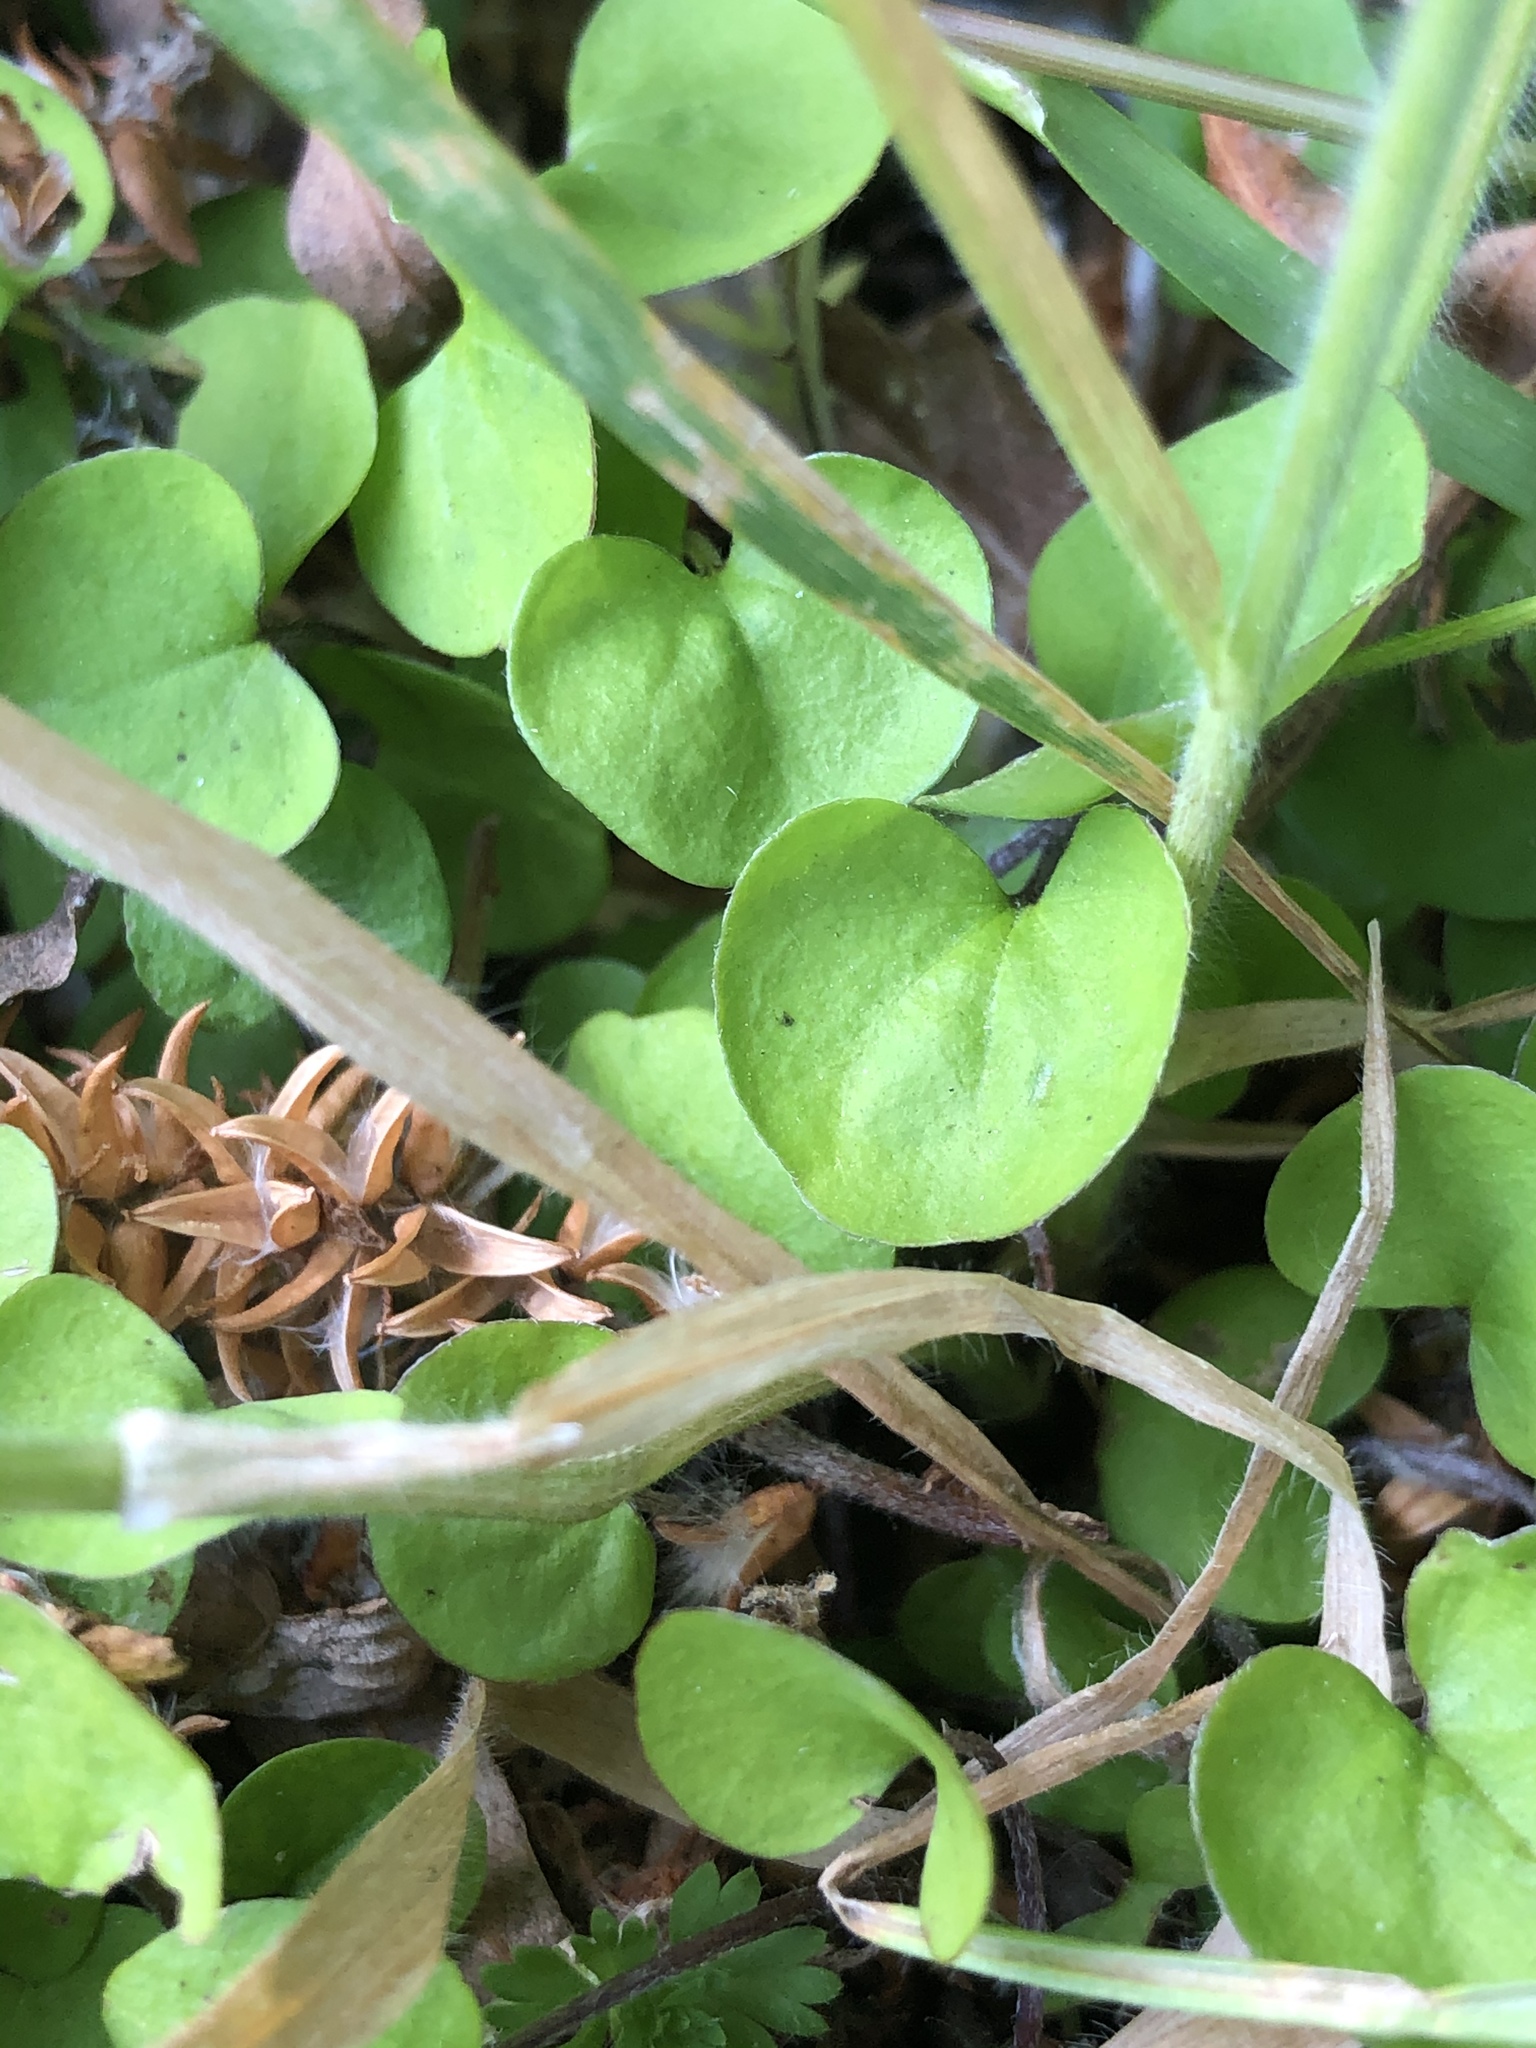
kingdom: Plantae
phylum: Tracheophyta
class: Magnoliopsida
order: Solanales
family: Convolvulaceae
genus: Dichondra
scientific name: Dichondra repens
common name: Kidneyweed
